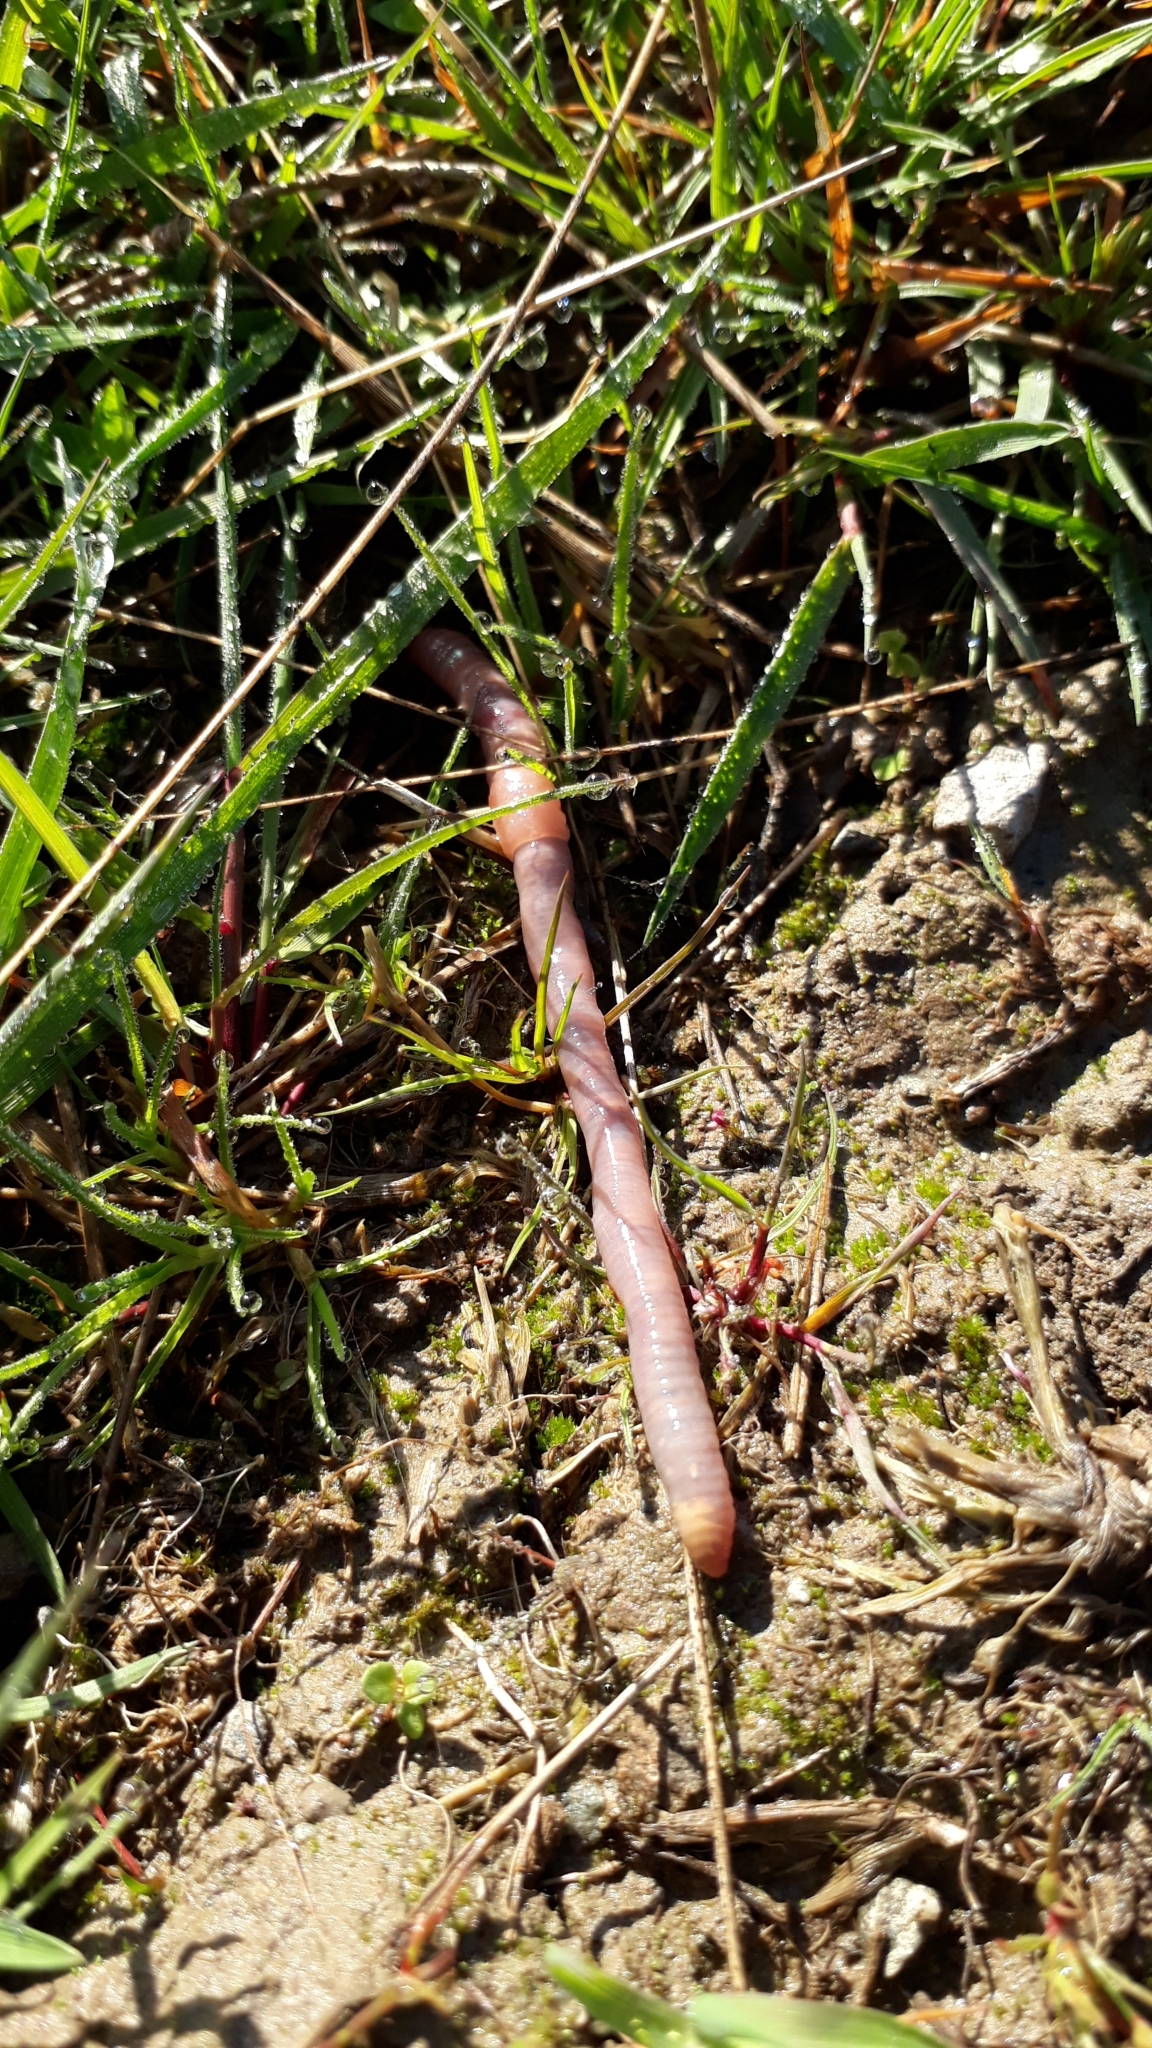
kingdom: Animalia
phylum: Annelida
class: Clitellata
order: Crassiclitellata
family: Lumbricidae
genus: Lumbricus
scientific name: Lumbricus terrestris
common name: Common earthworm
